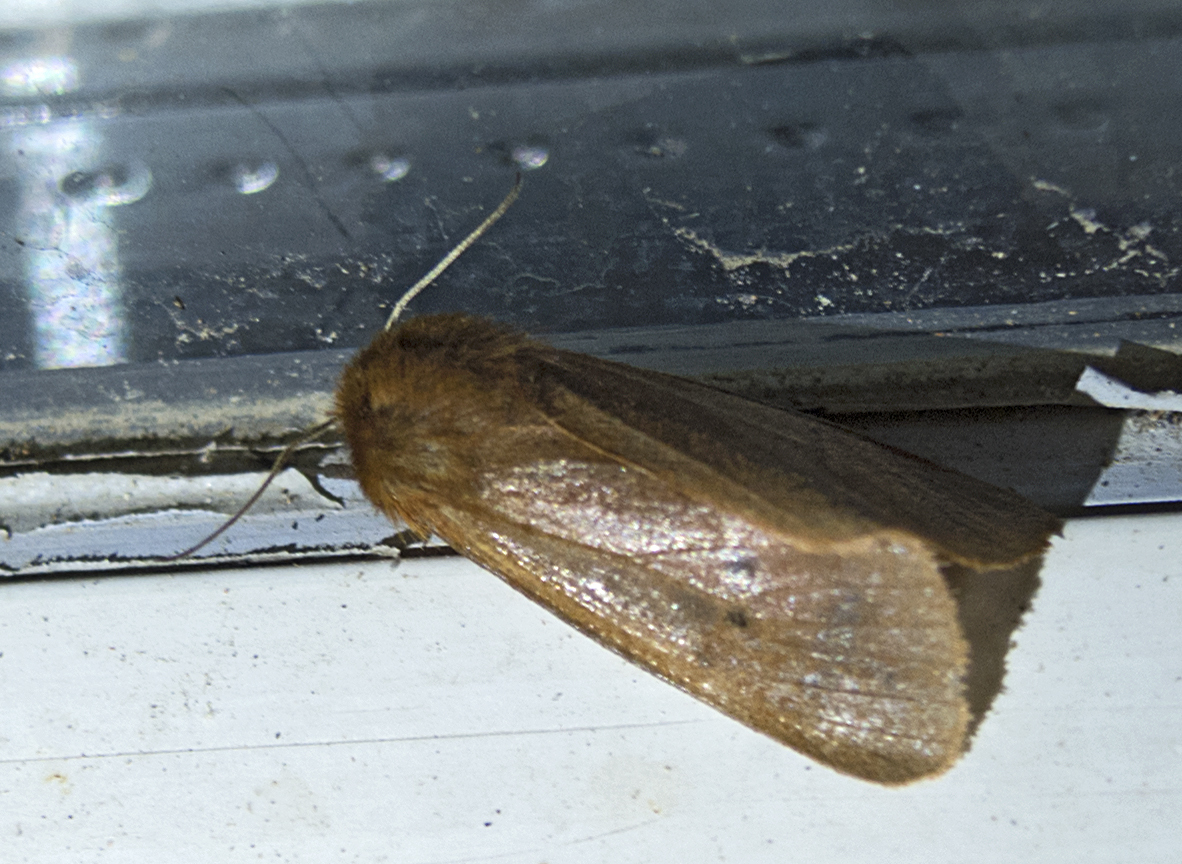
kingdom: Animalia
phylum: Arthropoda
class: Insecta
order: Lepidoptera
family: Erebidae
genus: Phragmatobia
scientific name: Phragmatobia fuliginosa
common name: Ruby tiger
